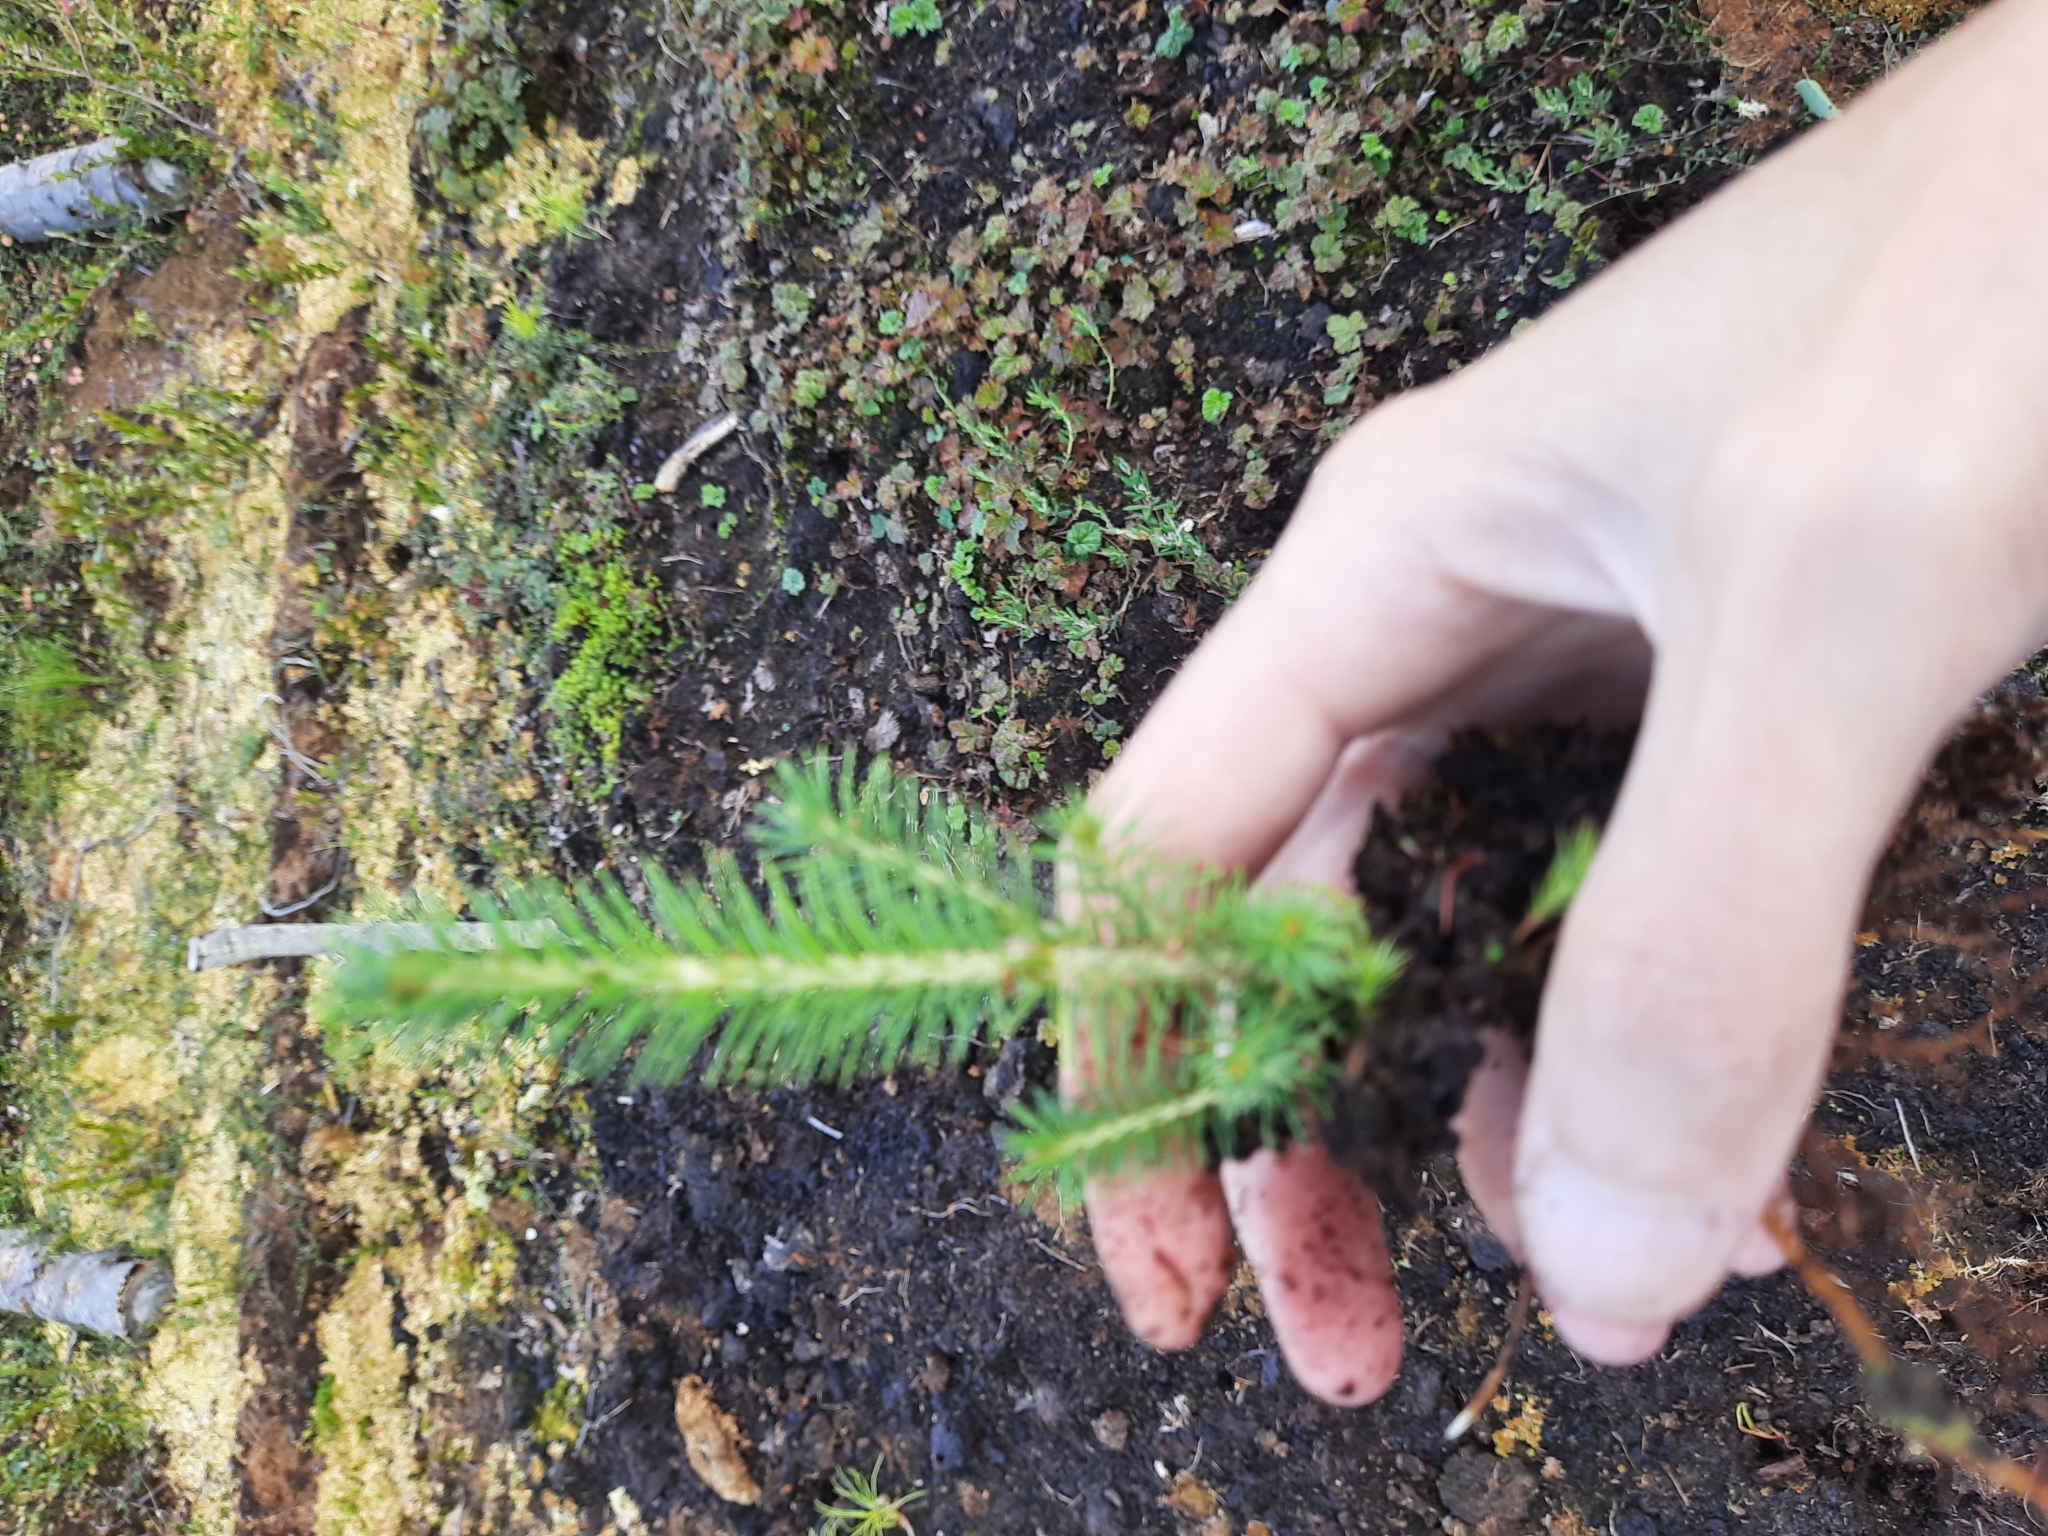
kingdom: Plantae
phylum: Tracheophyta
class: Pinopsida
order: Pinales
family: Pinaceae
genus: Picea
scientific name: Picea obovata
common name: Siberian spruce
